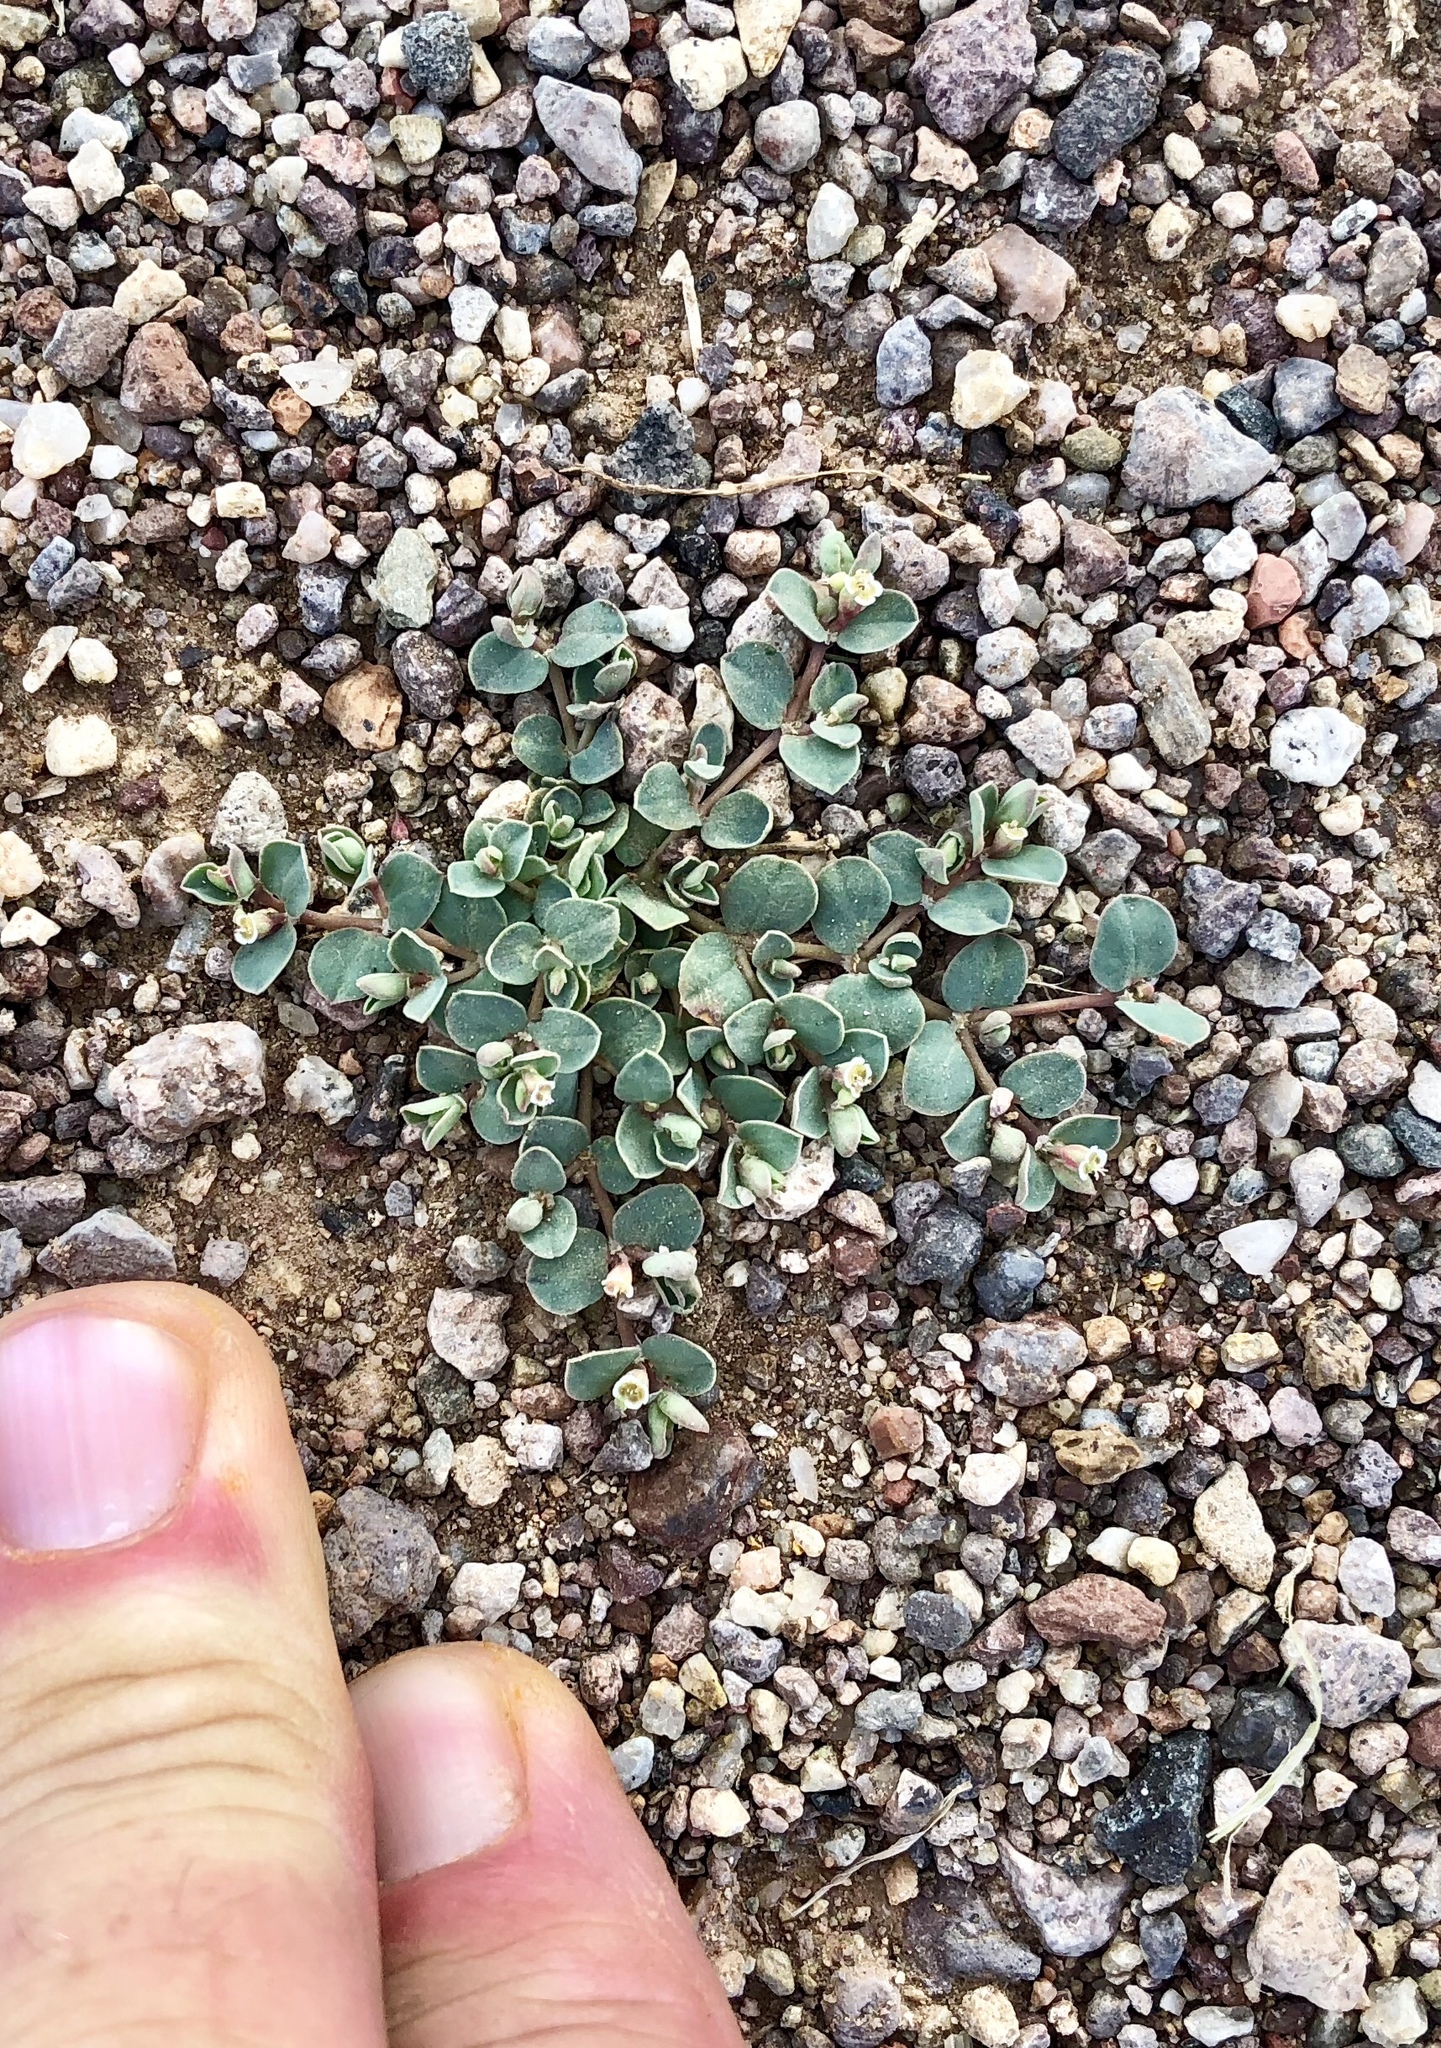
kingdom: Plantae
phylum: Tracheophyta
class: Magnoliopsida
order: Malpighiales
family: Euphorbiaceae
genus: Euphorbia
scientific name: Euphorbia albomarginata
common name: Whitemargin sandmat
